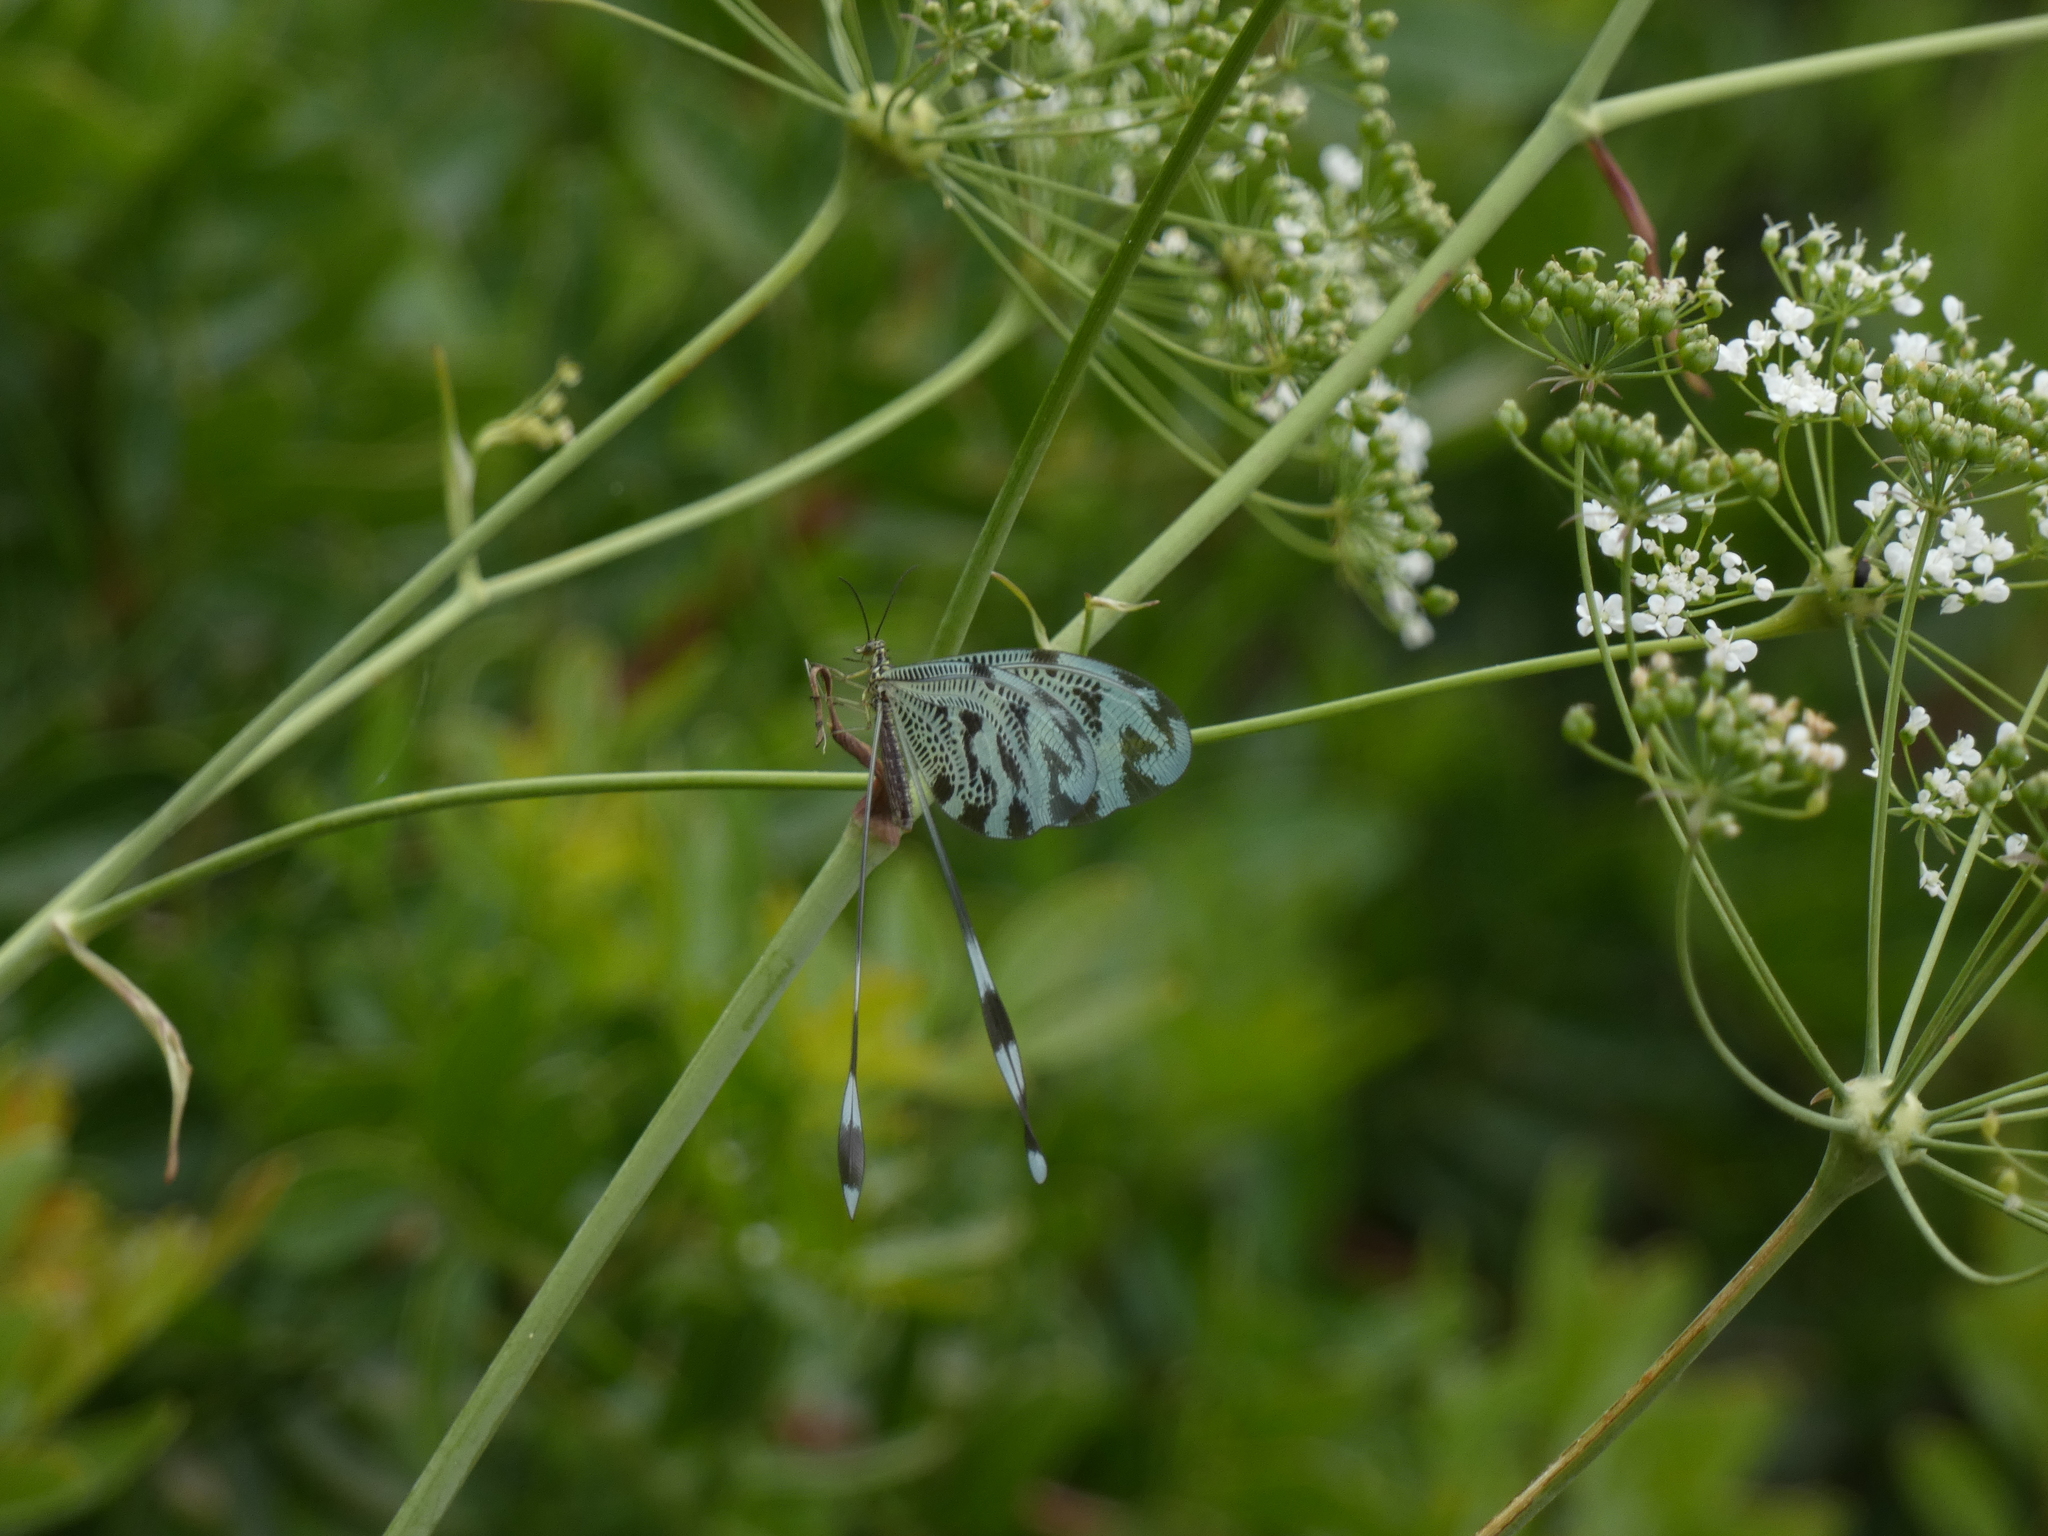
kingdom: Animalia
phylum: Arthropoda
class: Insecta
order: Neuroptera
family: Nemopteridae
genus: Nemoptera
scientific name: Nemoptera coa
